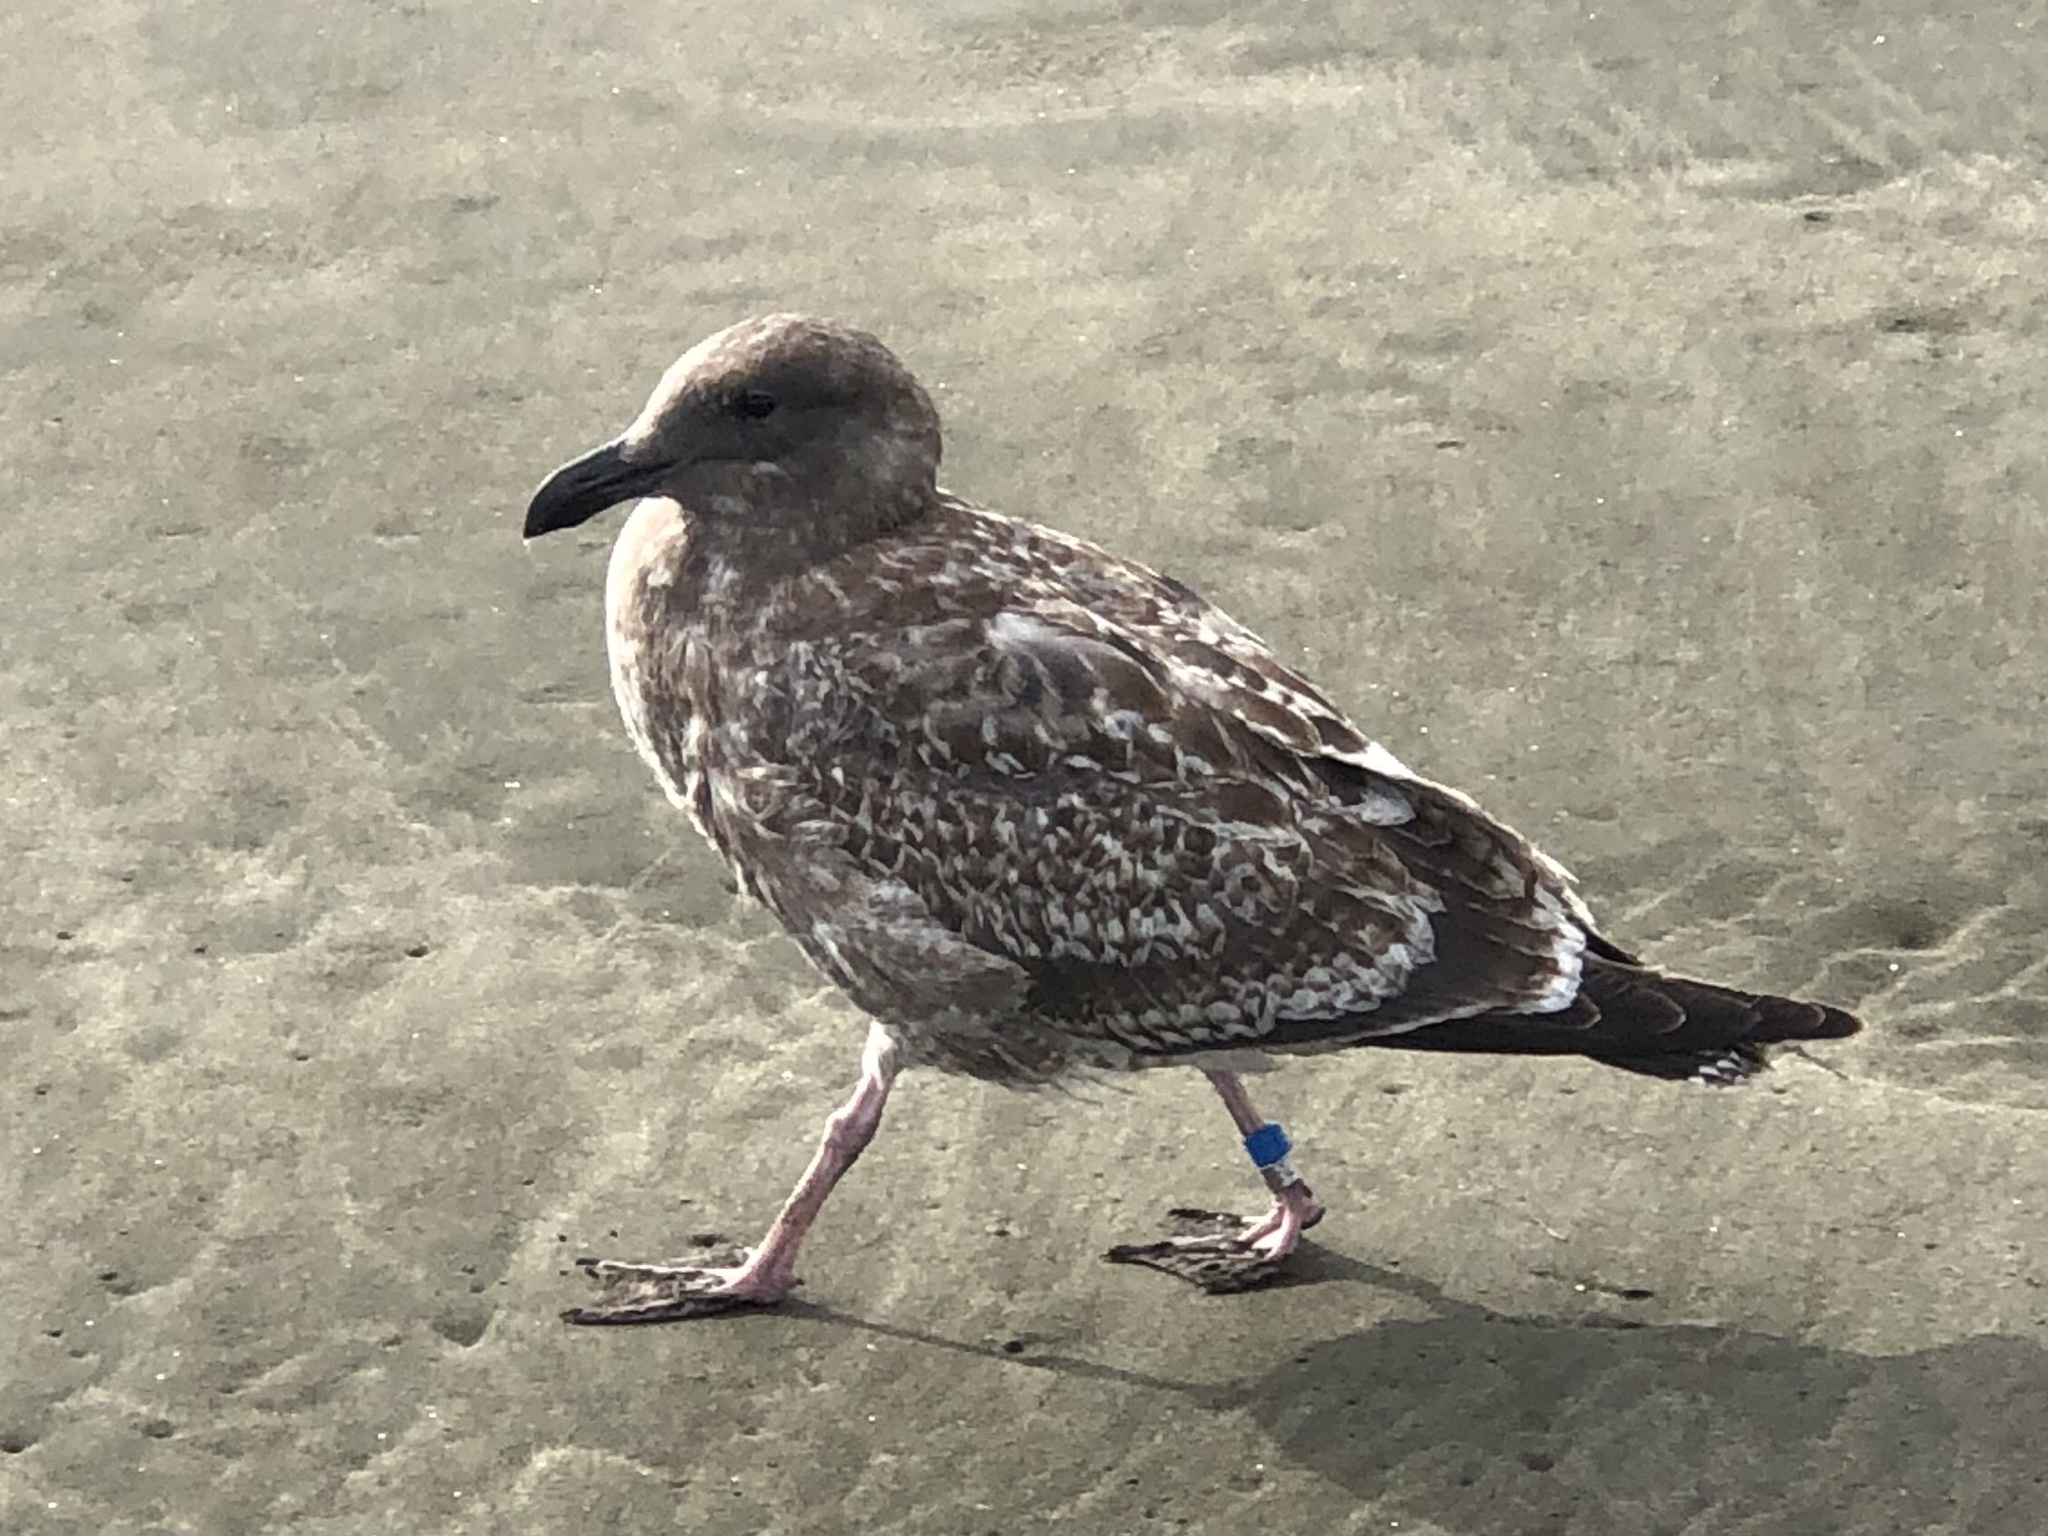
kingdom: Animalia
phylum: Chordata
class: Aves
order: Charadriiformes
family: Laridae
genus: Larus
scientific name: Larus occidentalis
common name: Western gull
